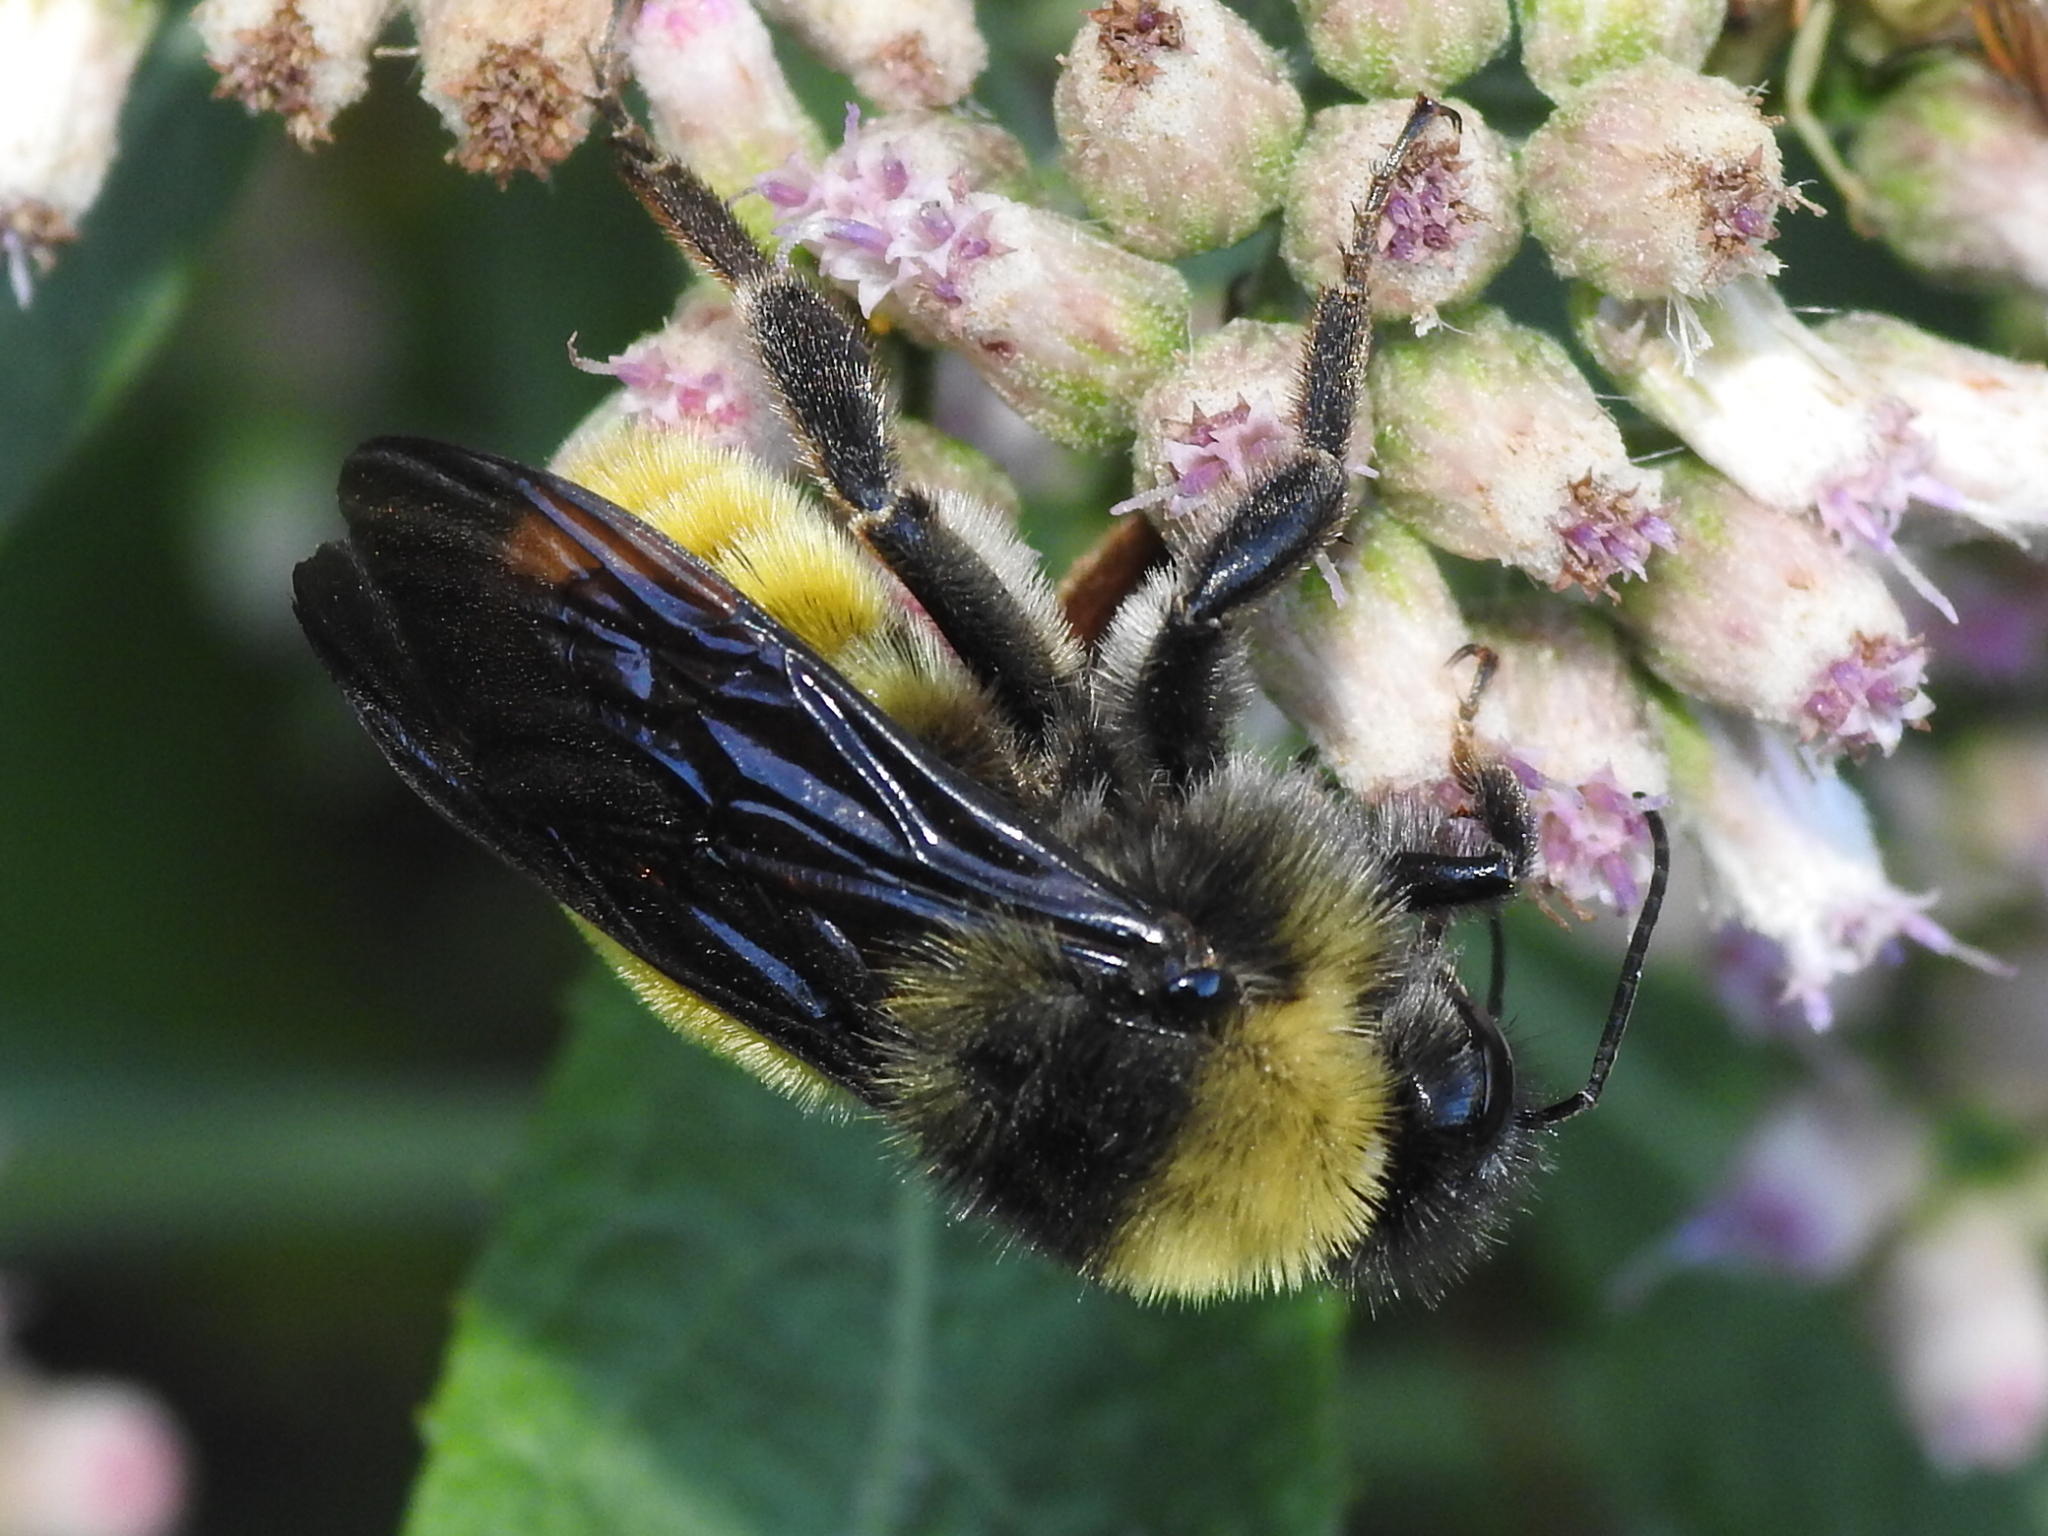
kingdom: Animalia
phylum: Arthropoda
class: Insecta
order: Hymenoptera
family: Apidae
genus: Bombus
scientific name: Bombus pensylvanicus
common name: Bumble bee
